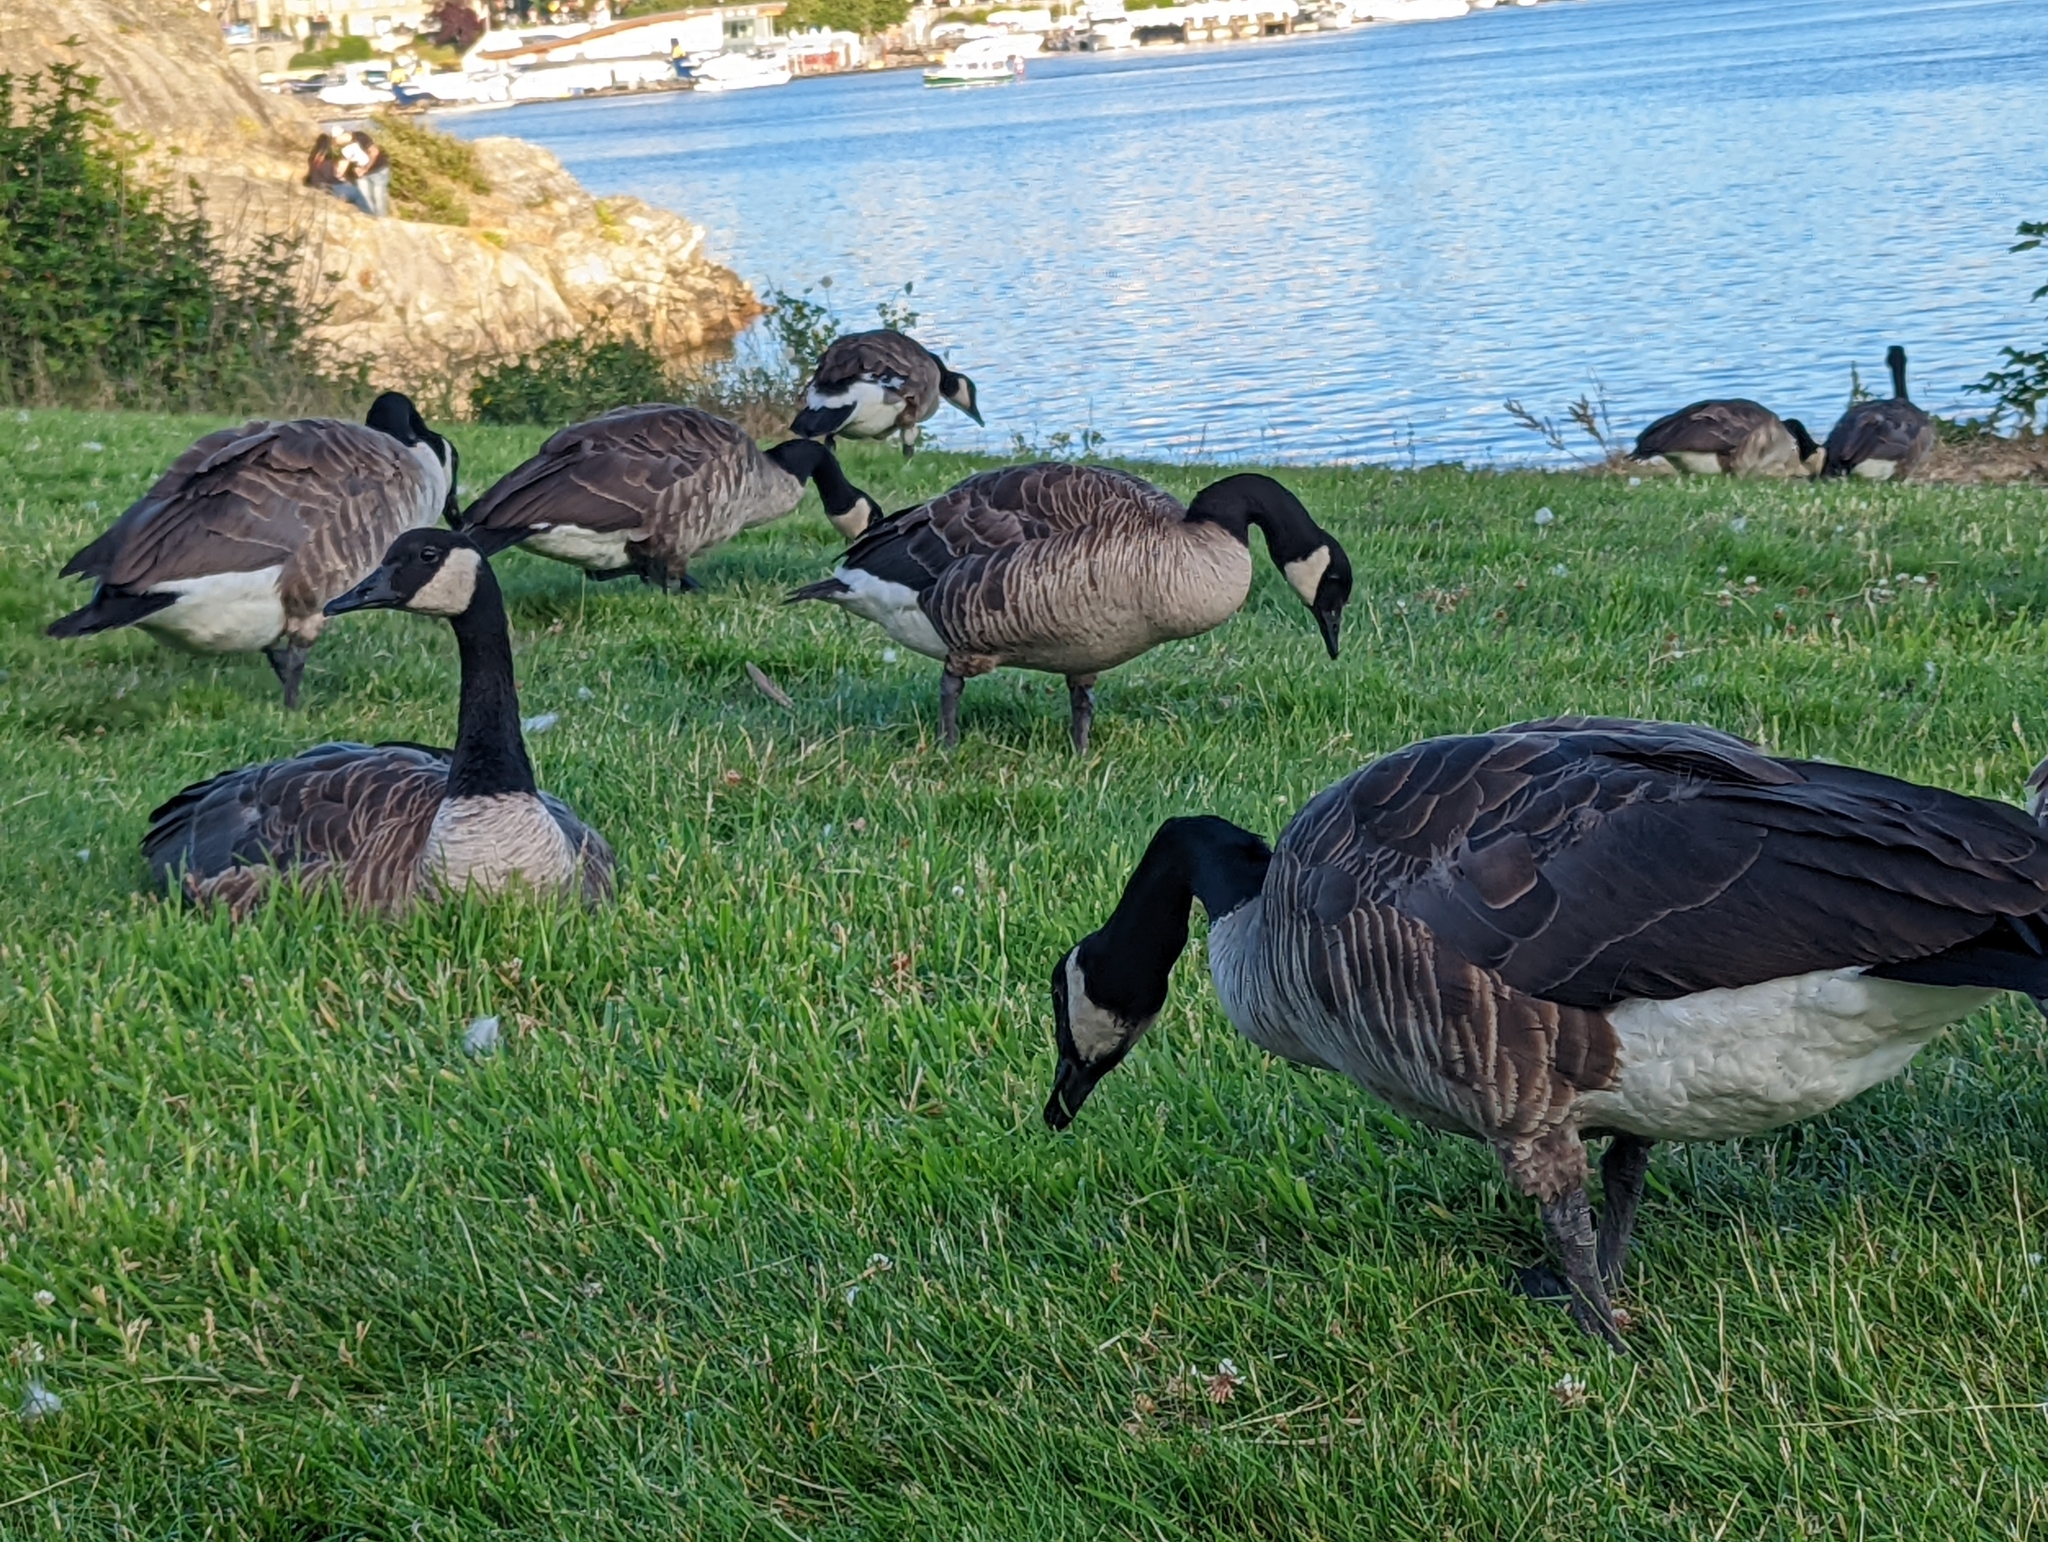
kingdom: Animalia
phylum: Chordata
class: Aves
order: Anseriformes
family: Anatidae
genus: Branta
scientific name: Branta canadensis
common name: Canada goose
